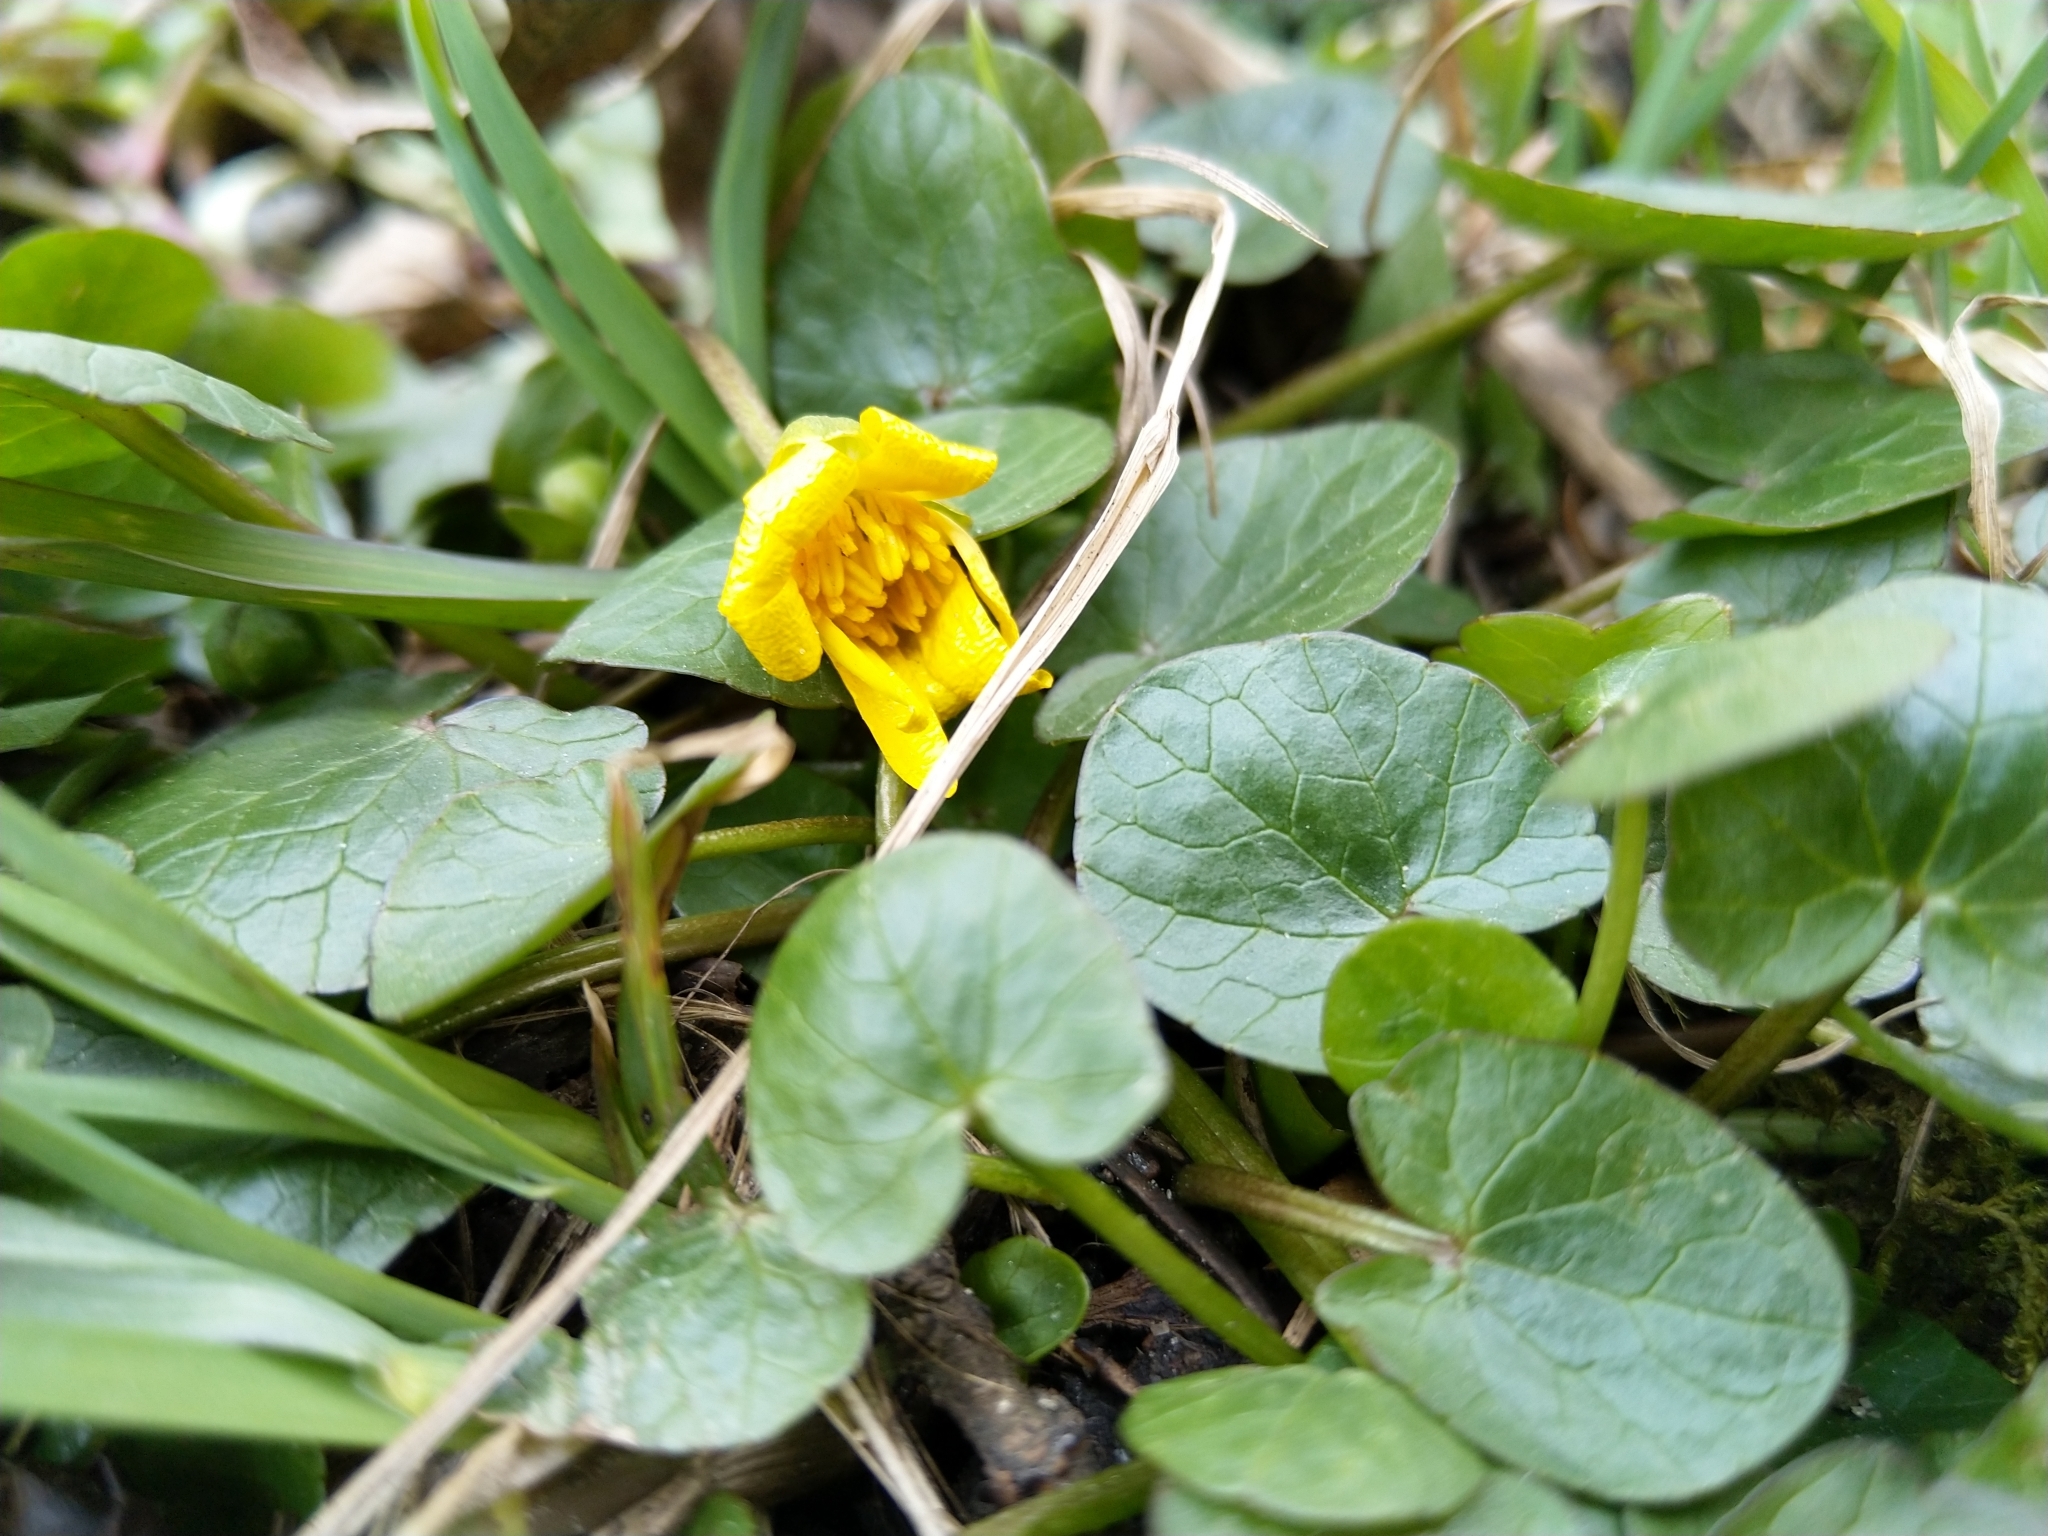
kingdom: Plantae
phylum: Tracheophyta
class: Magnoliopsida
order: Ranunculales
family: Ranunculaceae
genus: Ficaria
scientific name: Ficaria verna
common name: Lesser celandine
